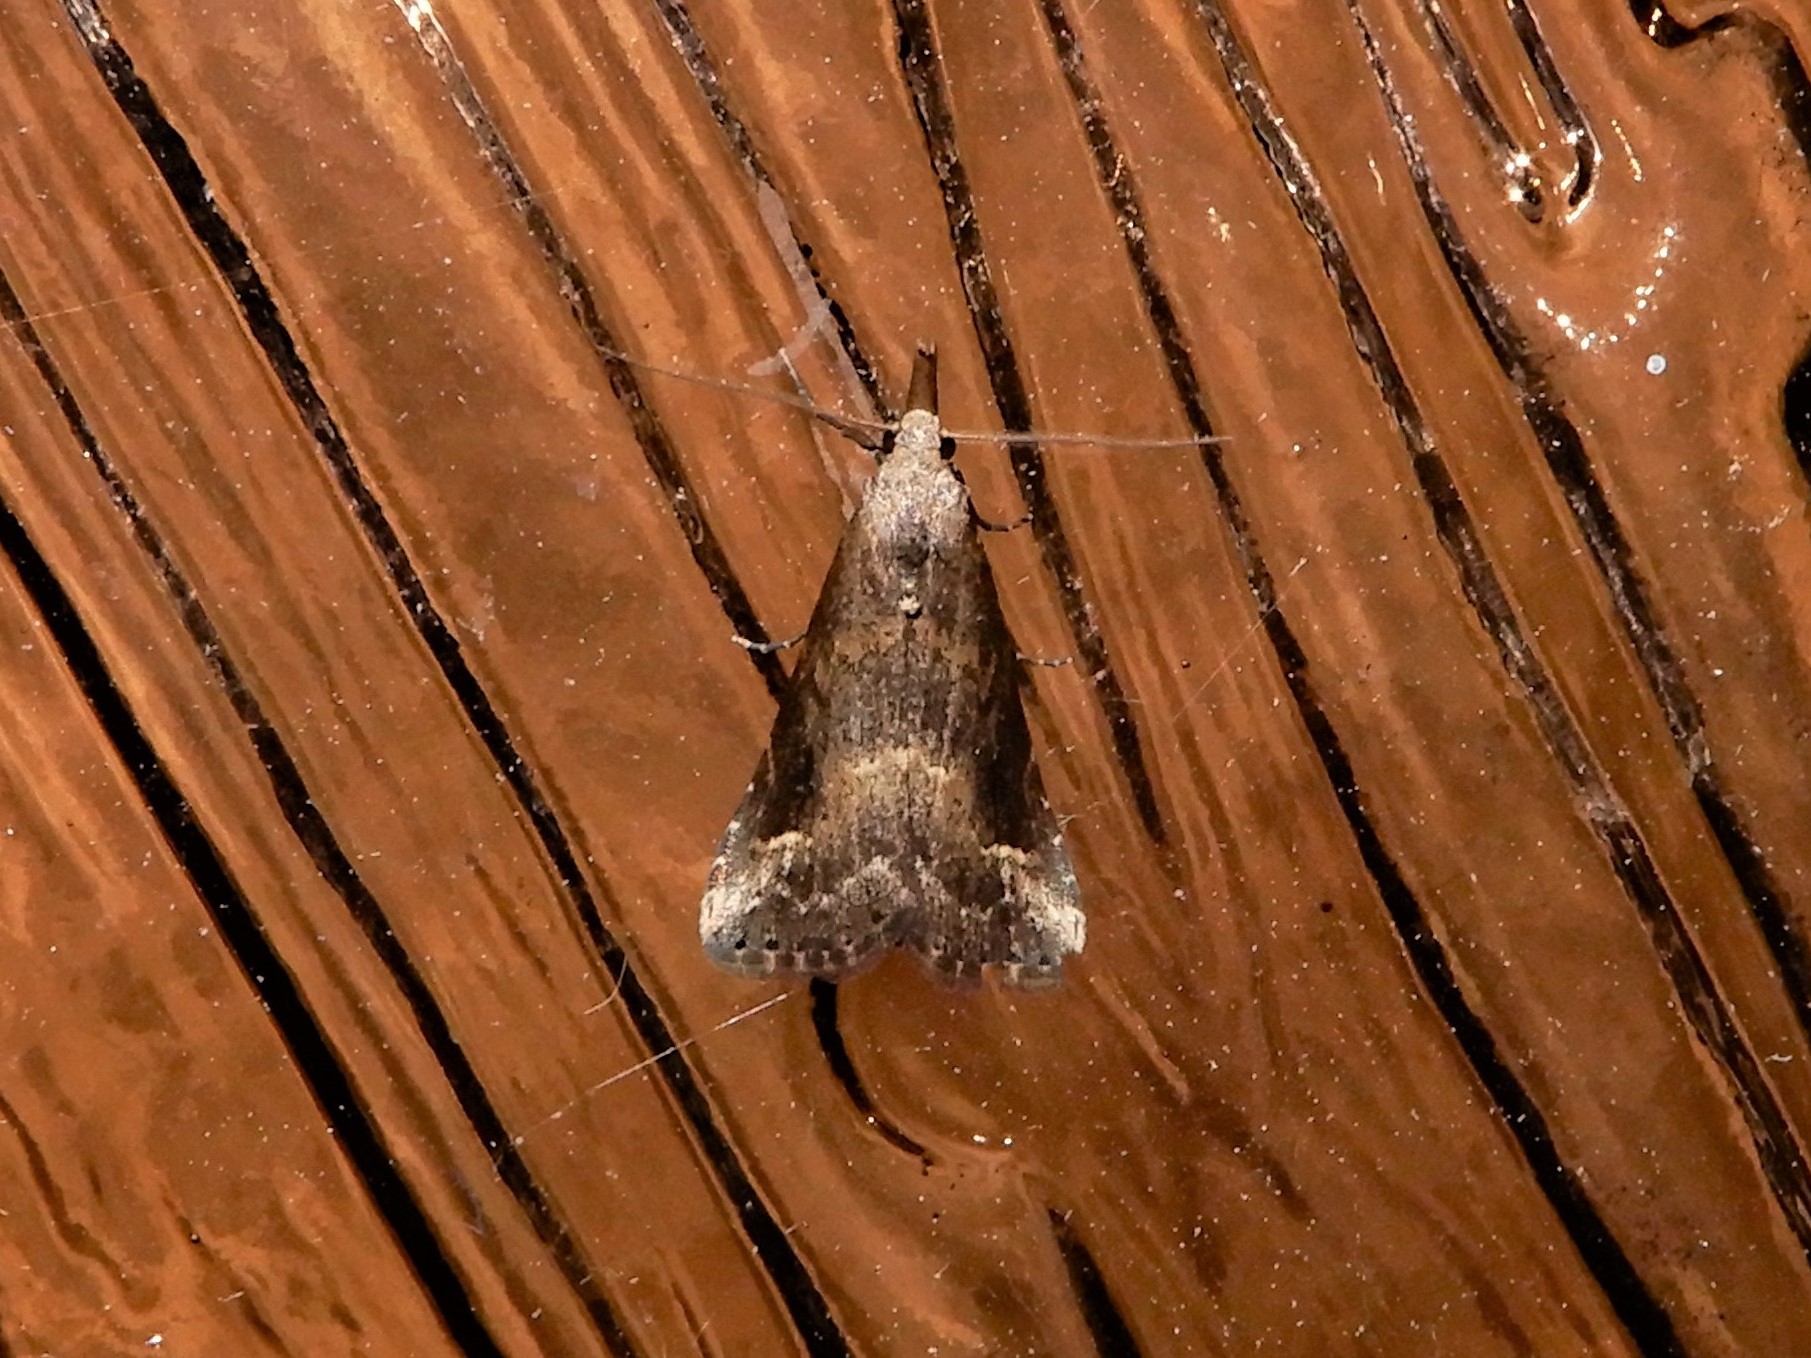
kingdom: Animalia
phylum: Arthropoda
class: Insecta
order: Lepidoptera
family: Erebidae
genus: Schrankia
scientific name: Schrankia costaestrigalis
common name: Pinion-streaked snout
